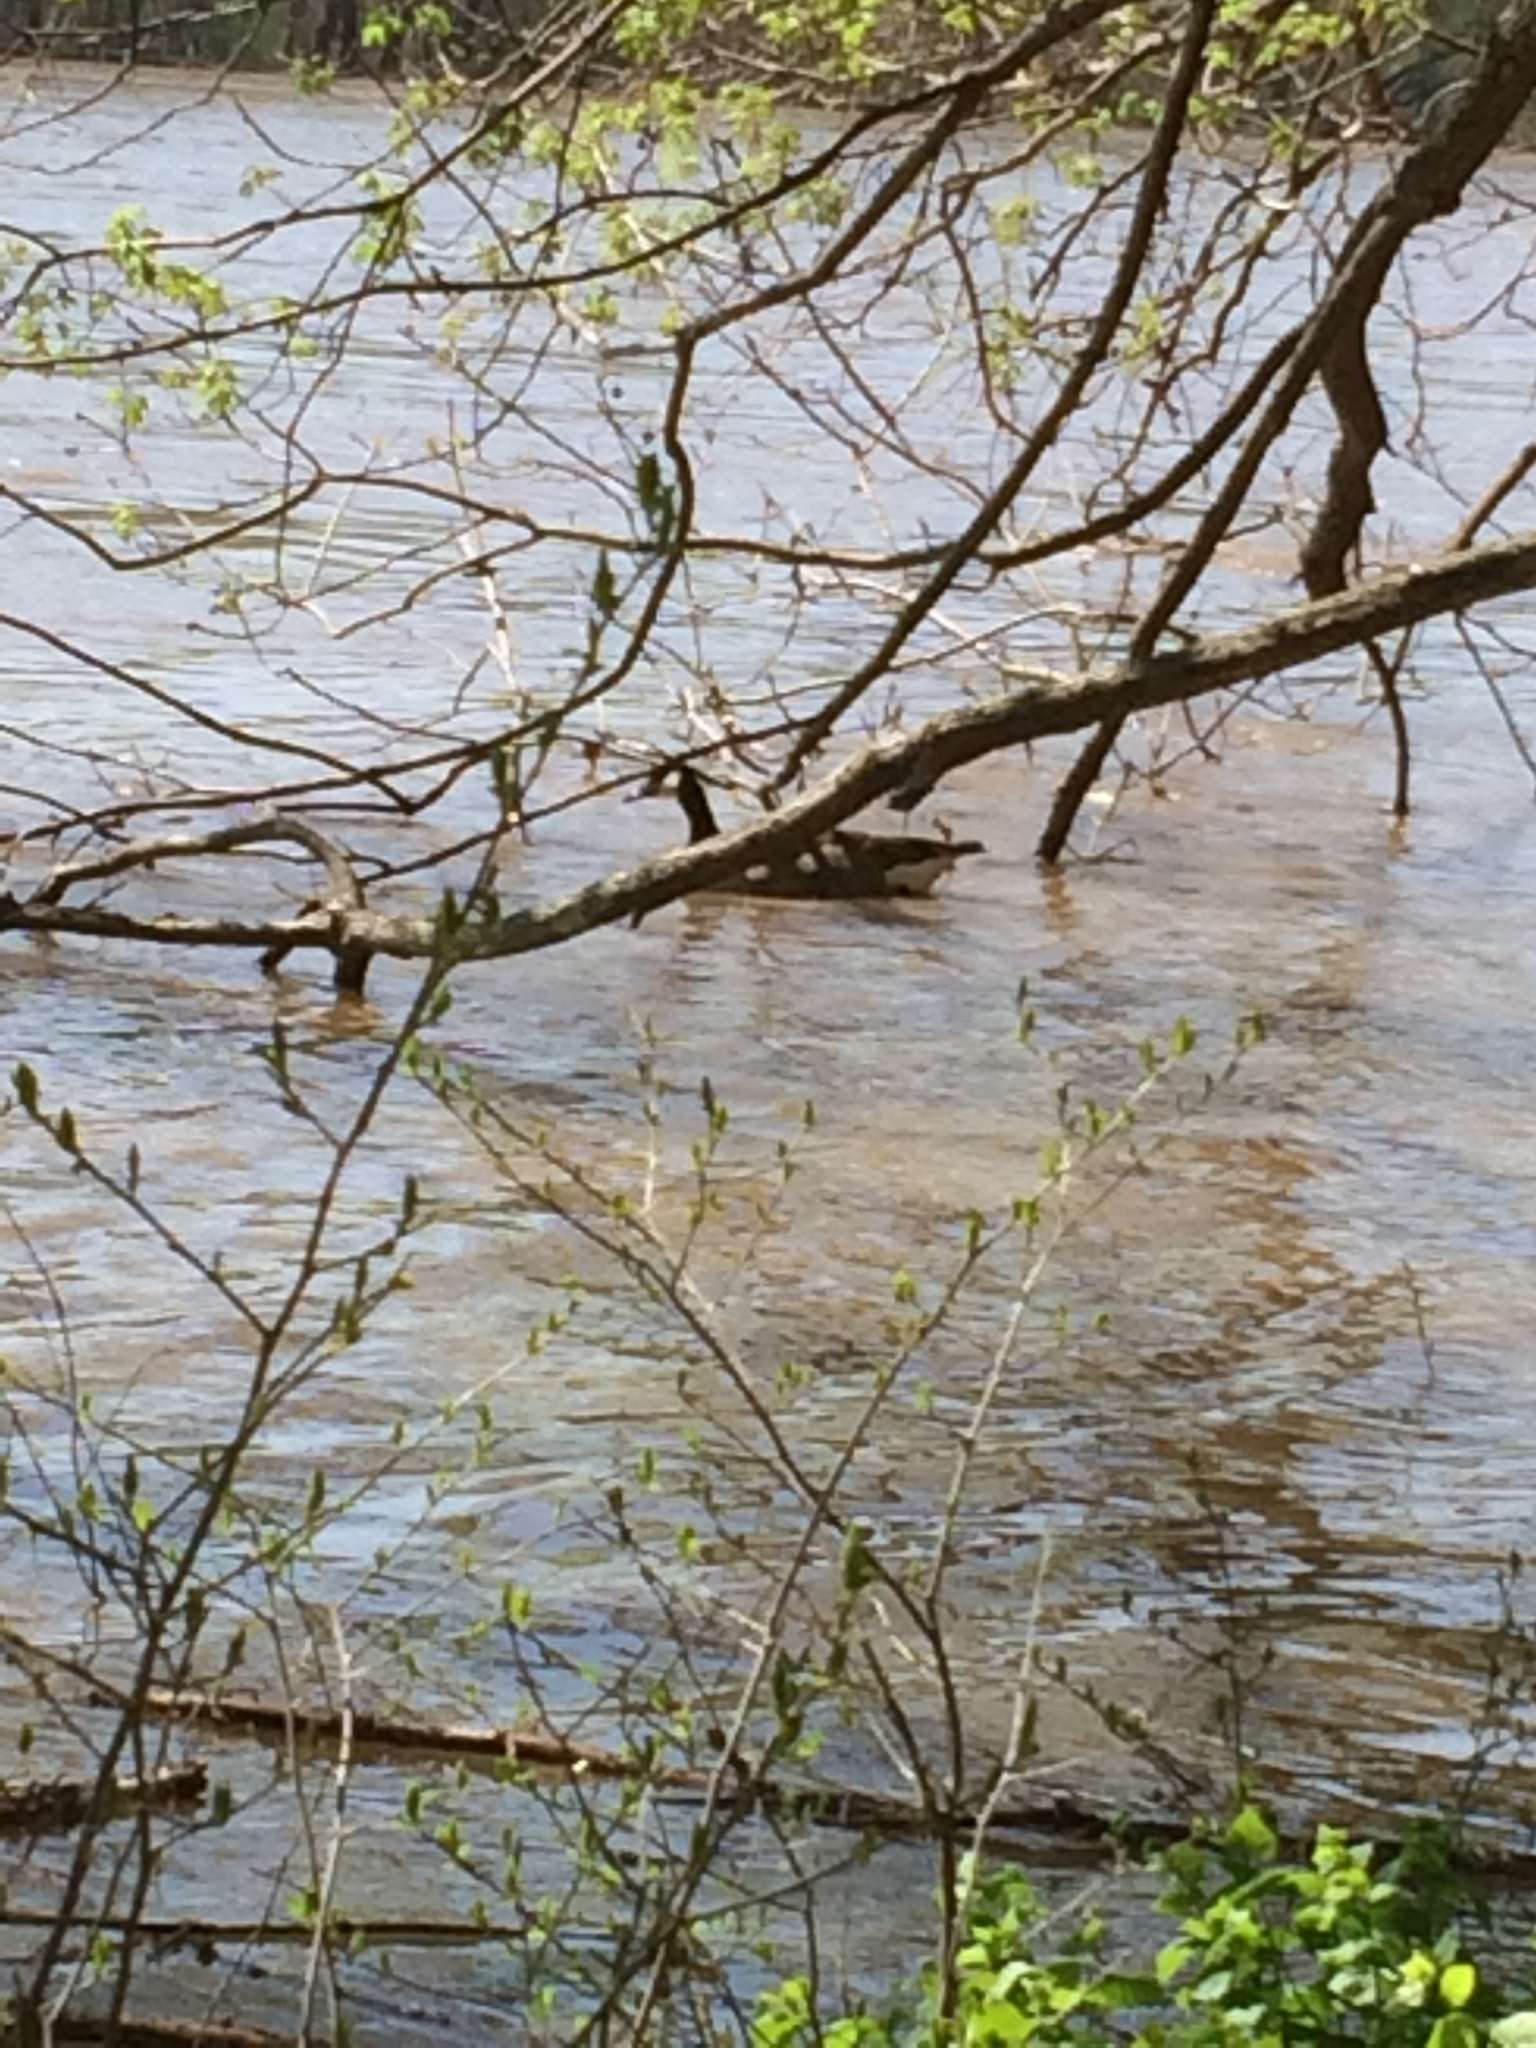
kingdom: Animalia
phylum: Chordata
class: Aves
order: Anseriformes
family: Anatidae
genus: Branta
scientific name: Branta canadensis
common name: Canada goose
